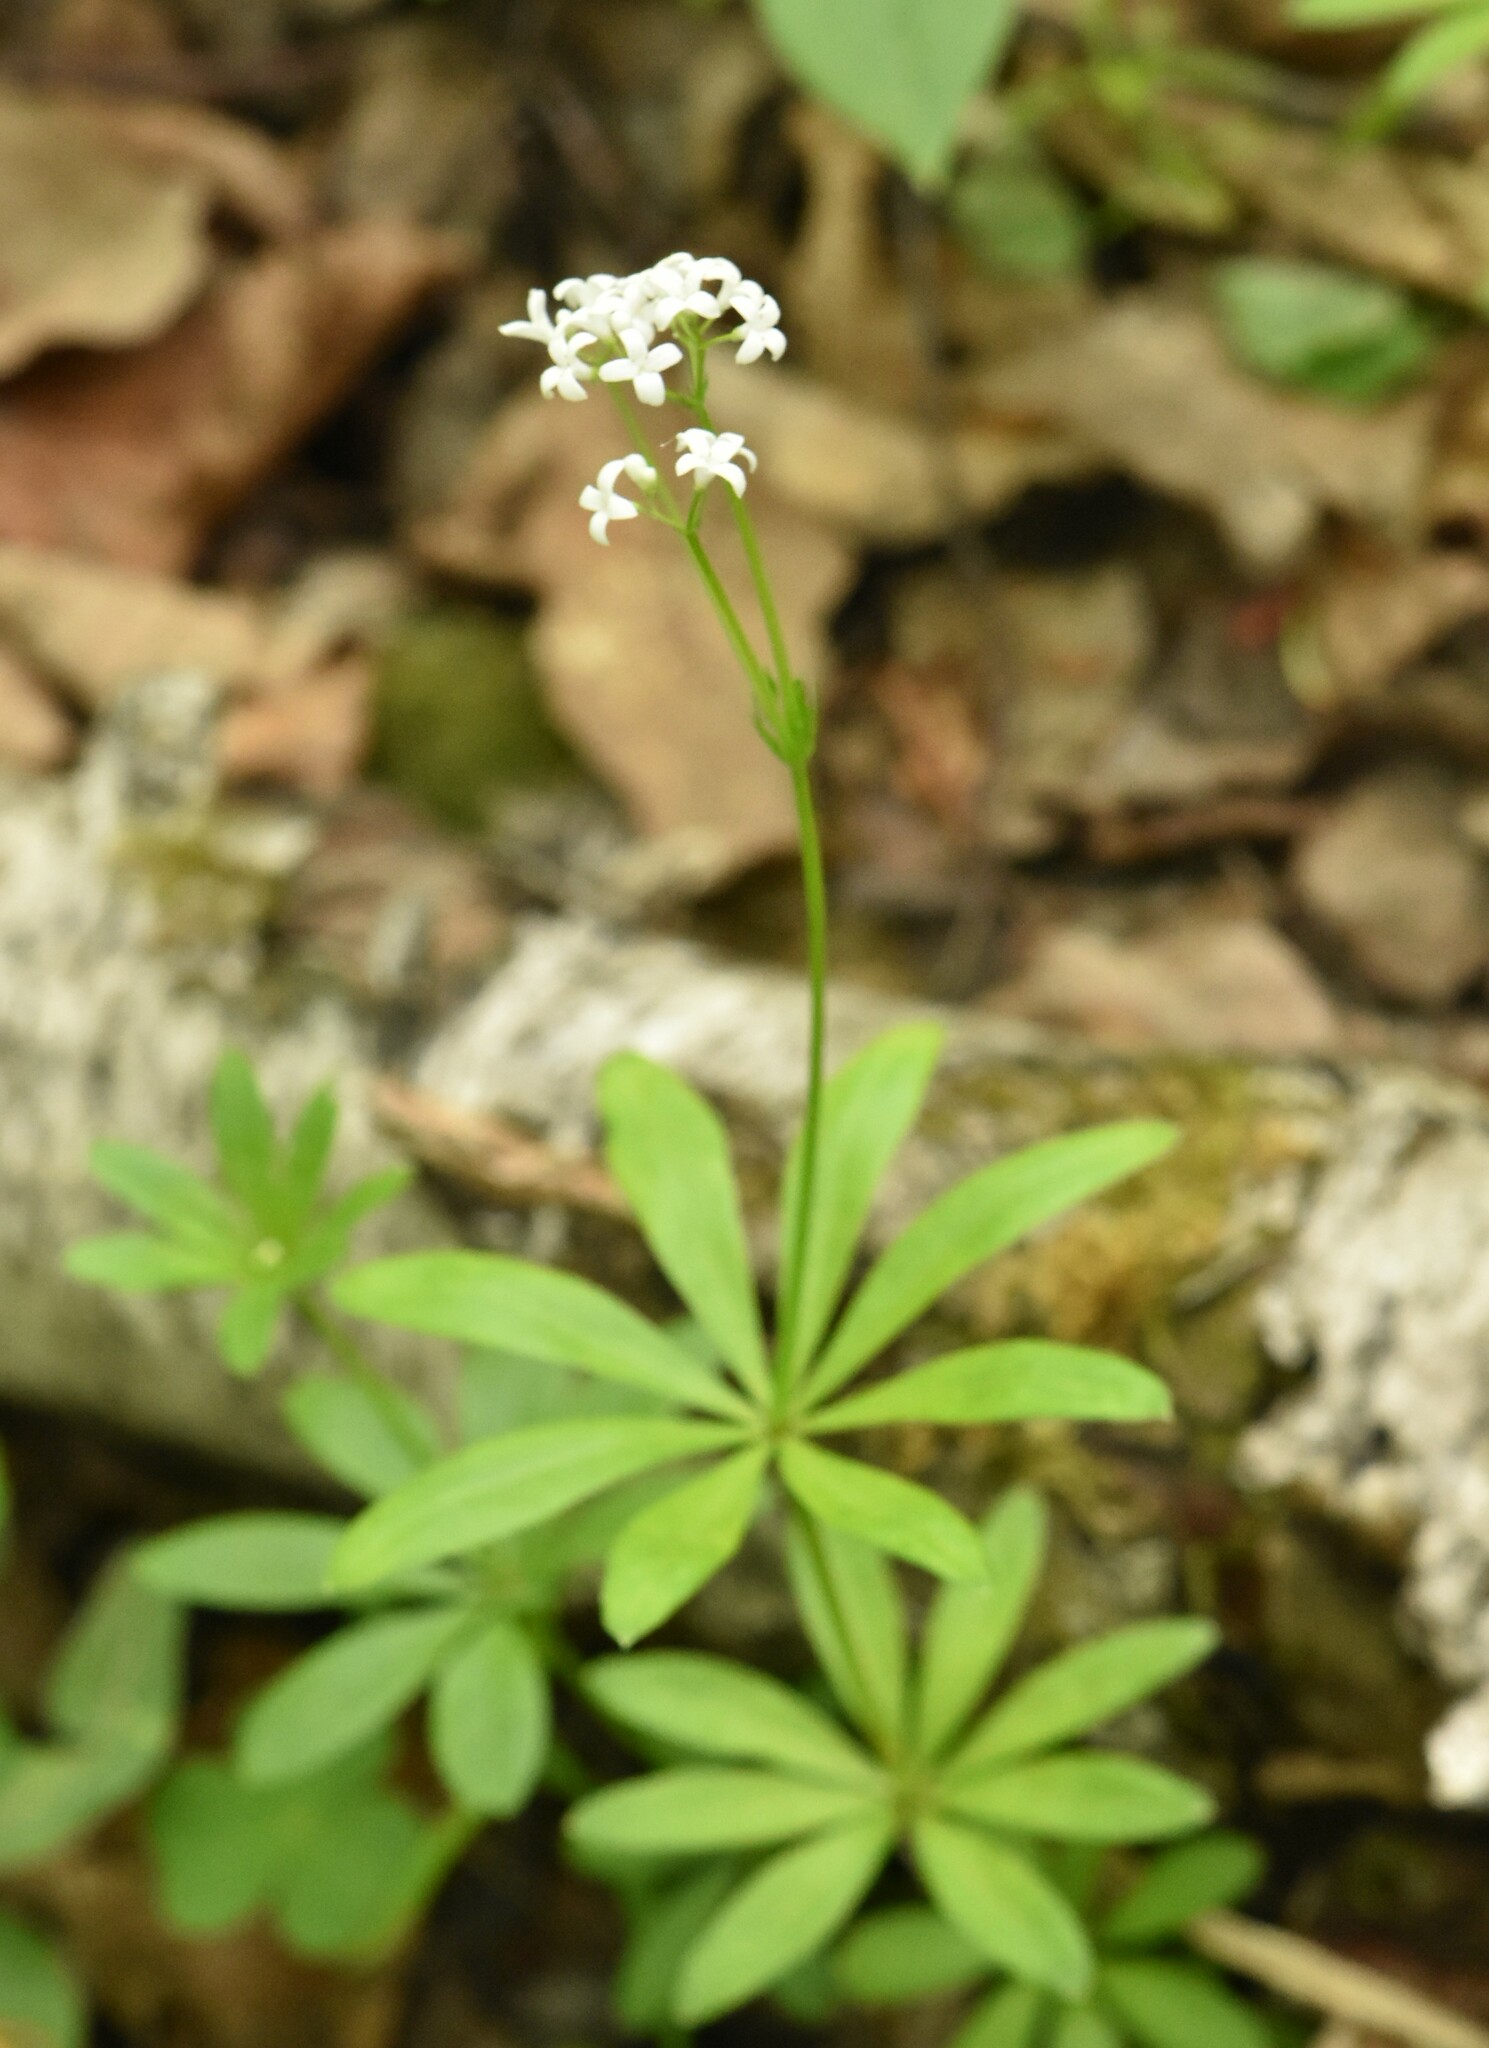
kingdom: Plantae
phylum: Tracheophyta
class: Magnoliopsida
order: Gentianales
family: Rubiaceae
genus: Galium
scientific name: Galium odoratum
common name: Sweet woodruff
